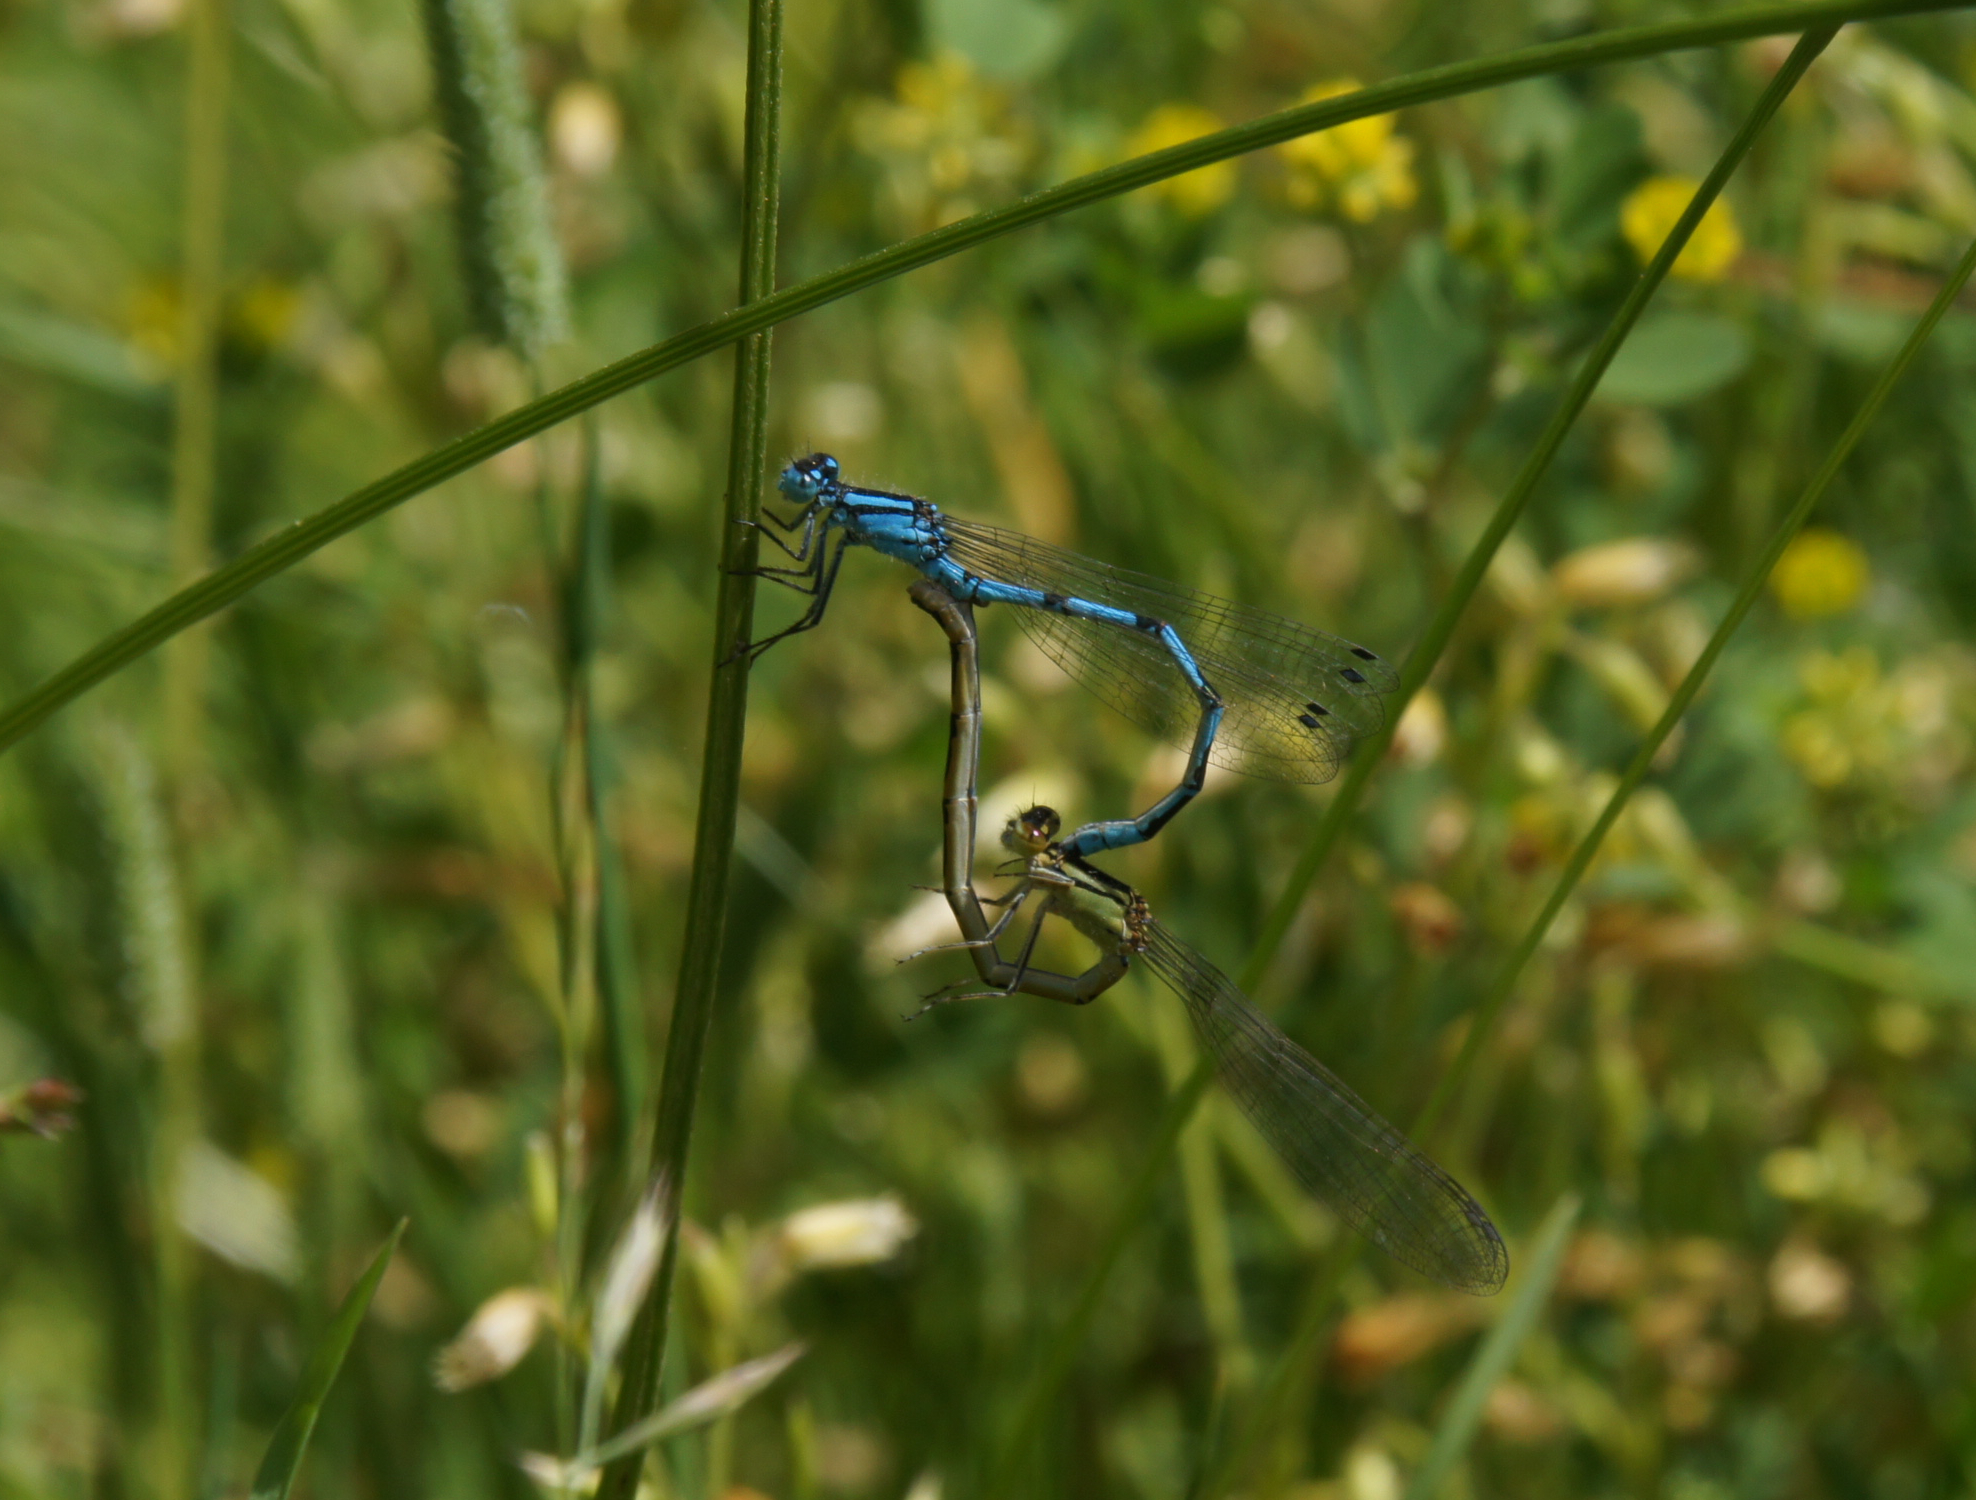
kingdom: Animalia
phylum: Arthropoda
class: Insecta
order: Odonata
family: Coenagrionidae
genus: Enallagma
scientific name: Enallagma cyathigerum
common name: Common blue damselfly
